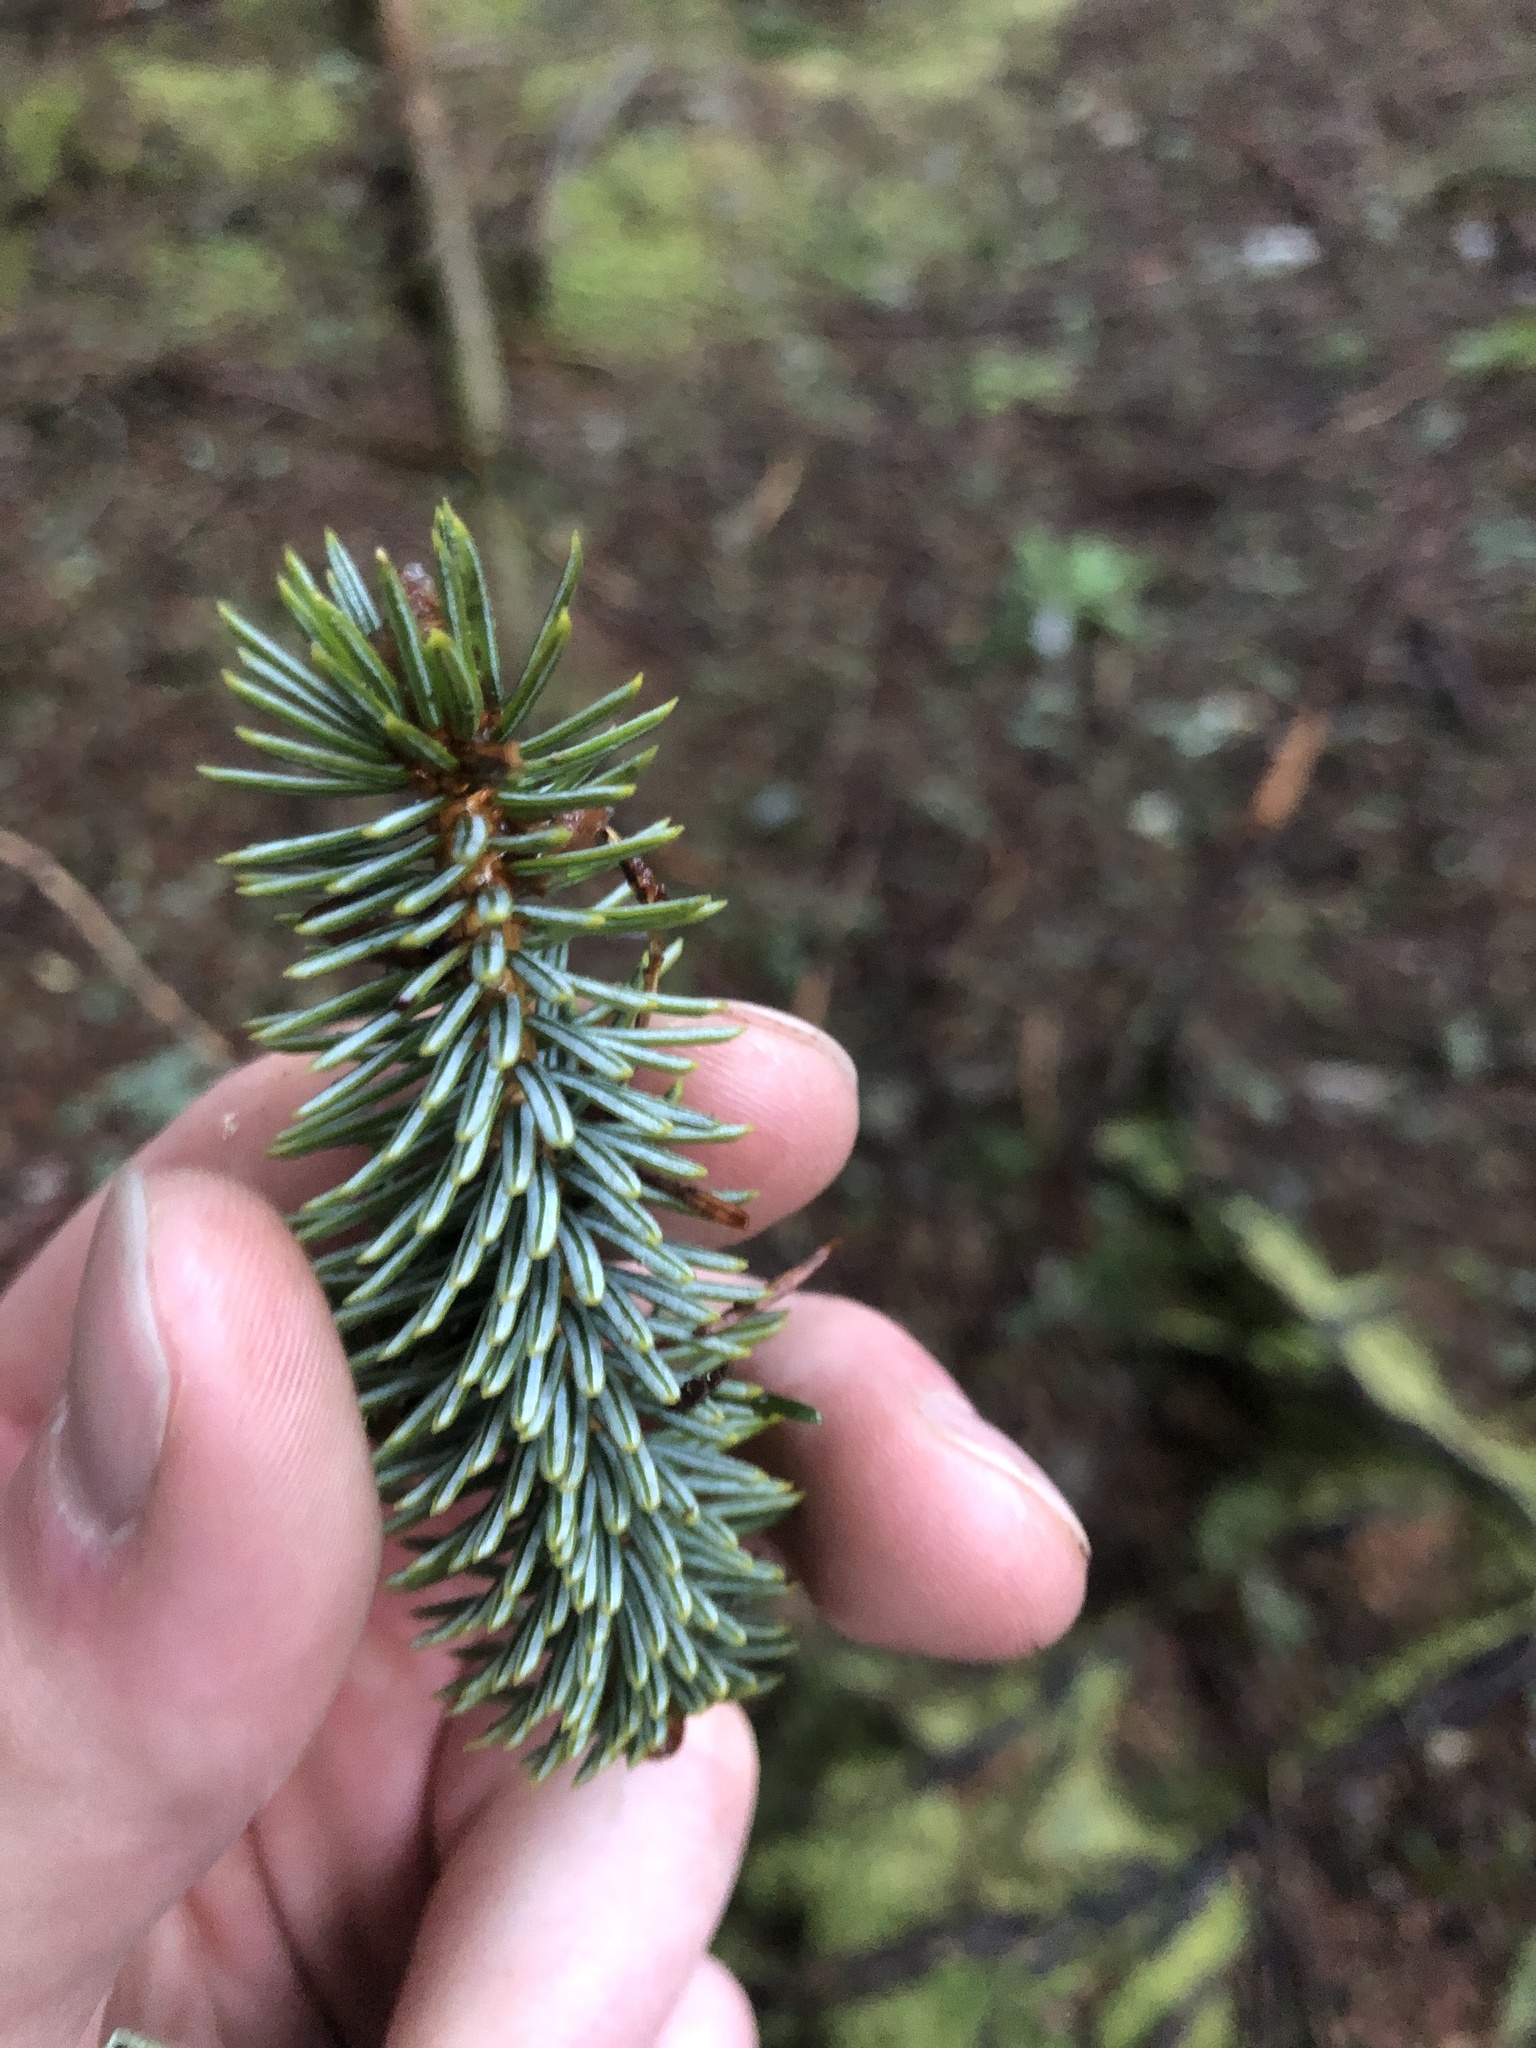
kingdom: Plantae
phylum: Tracheophyta
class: Pinopsida
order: Pinales
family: Pinaceae
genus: Picea
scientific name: Picea sitchensis
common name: Sitka spruce
